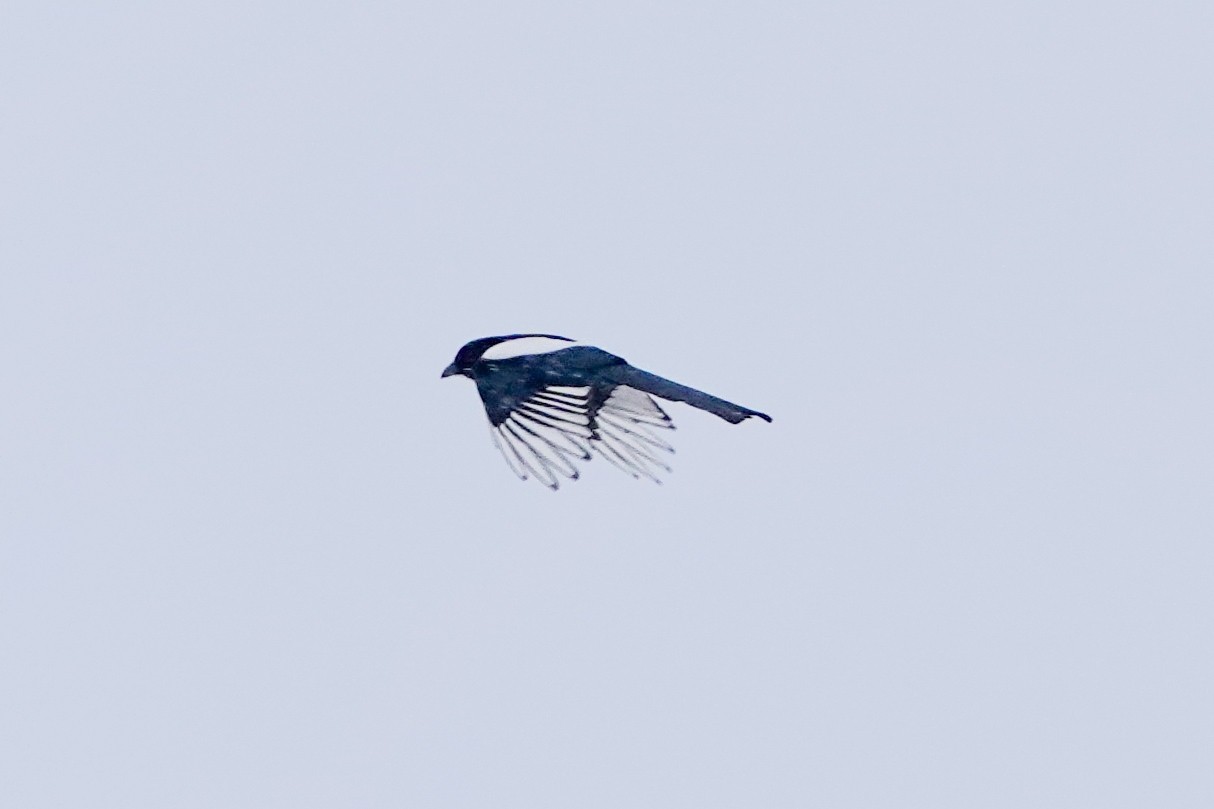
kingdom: Animalia
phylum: Chordata
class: Aves
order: Passeriformes
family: Corvidae
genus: Pica
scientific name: Pica pica
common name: Eurasian magpie
